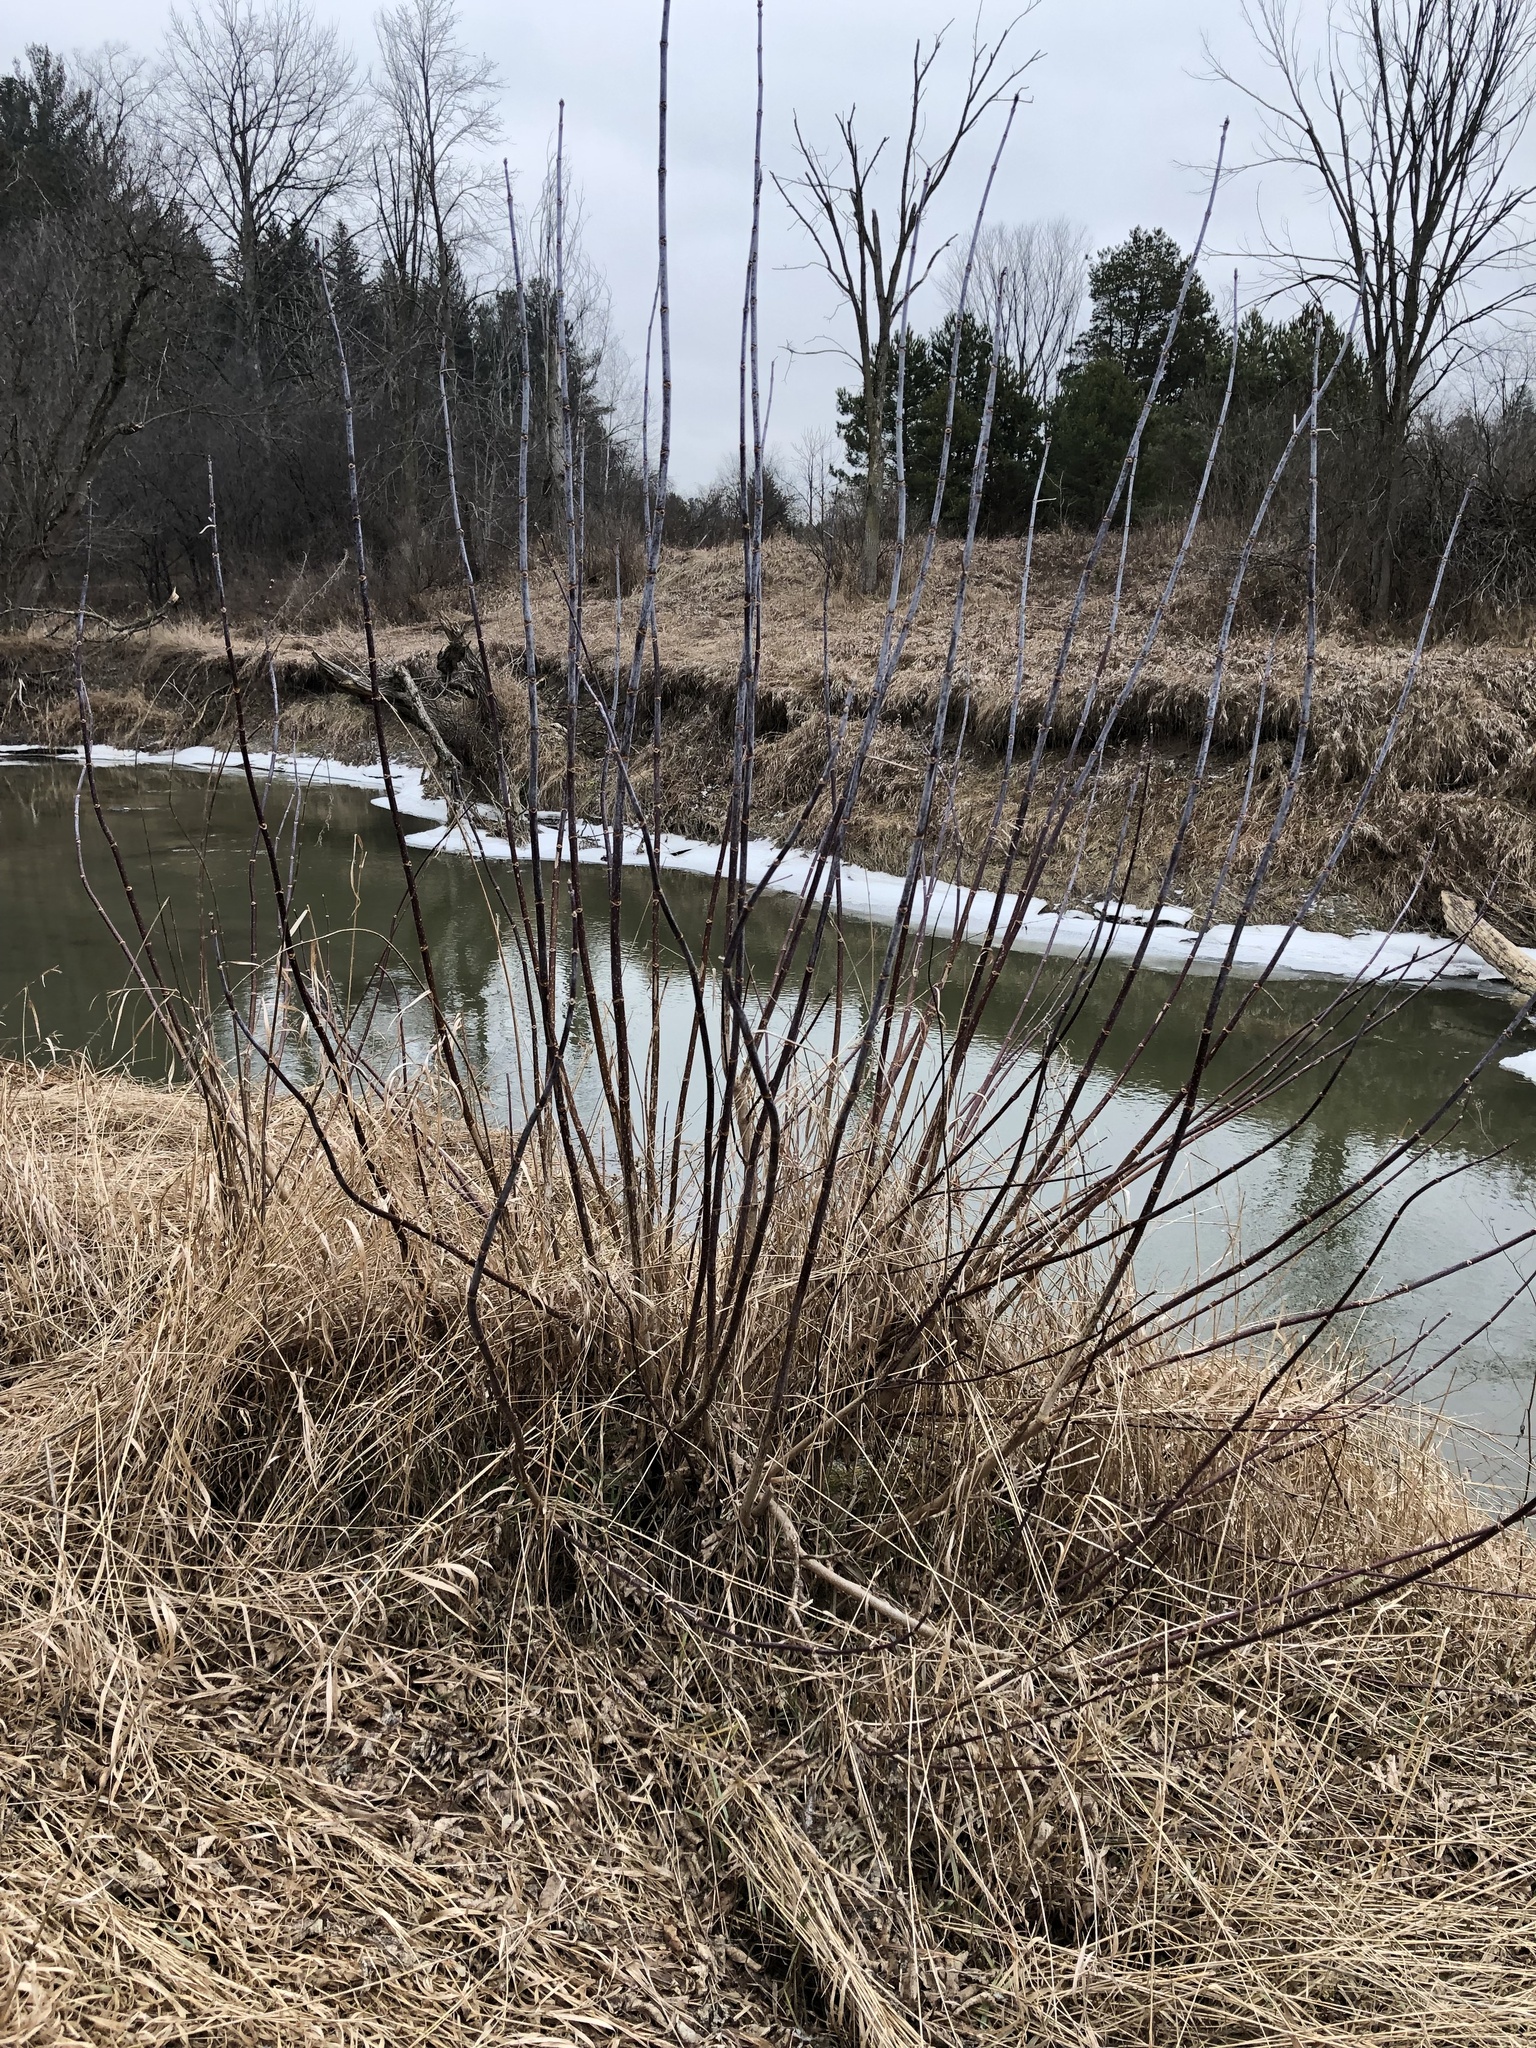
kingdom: Plantae
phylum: Tracheophyta
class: Magnoliopsida
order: Sapindales
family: Sapindaceae
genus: Acer
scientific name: Acer negundo
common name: Ashleaf maple
